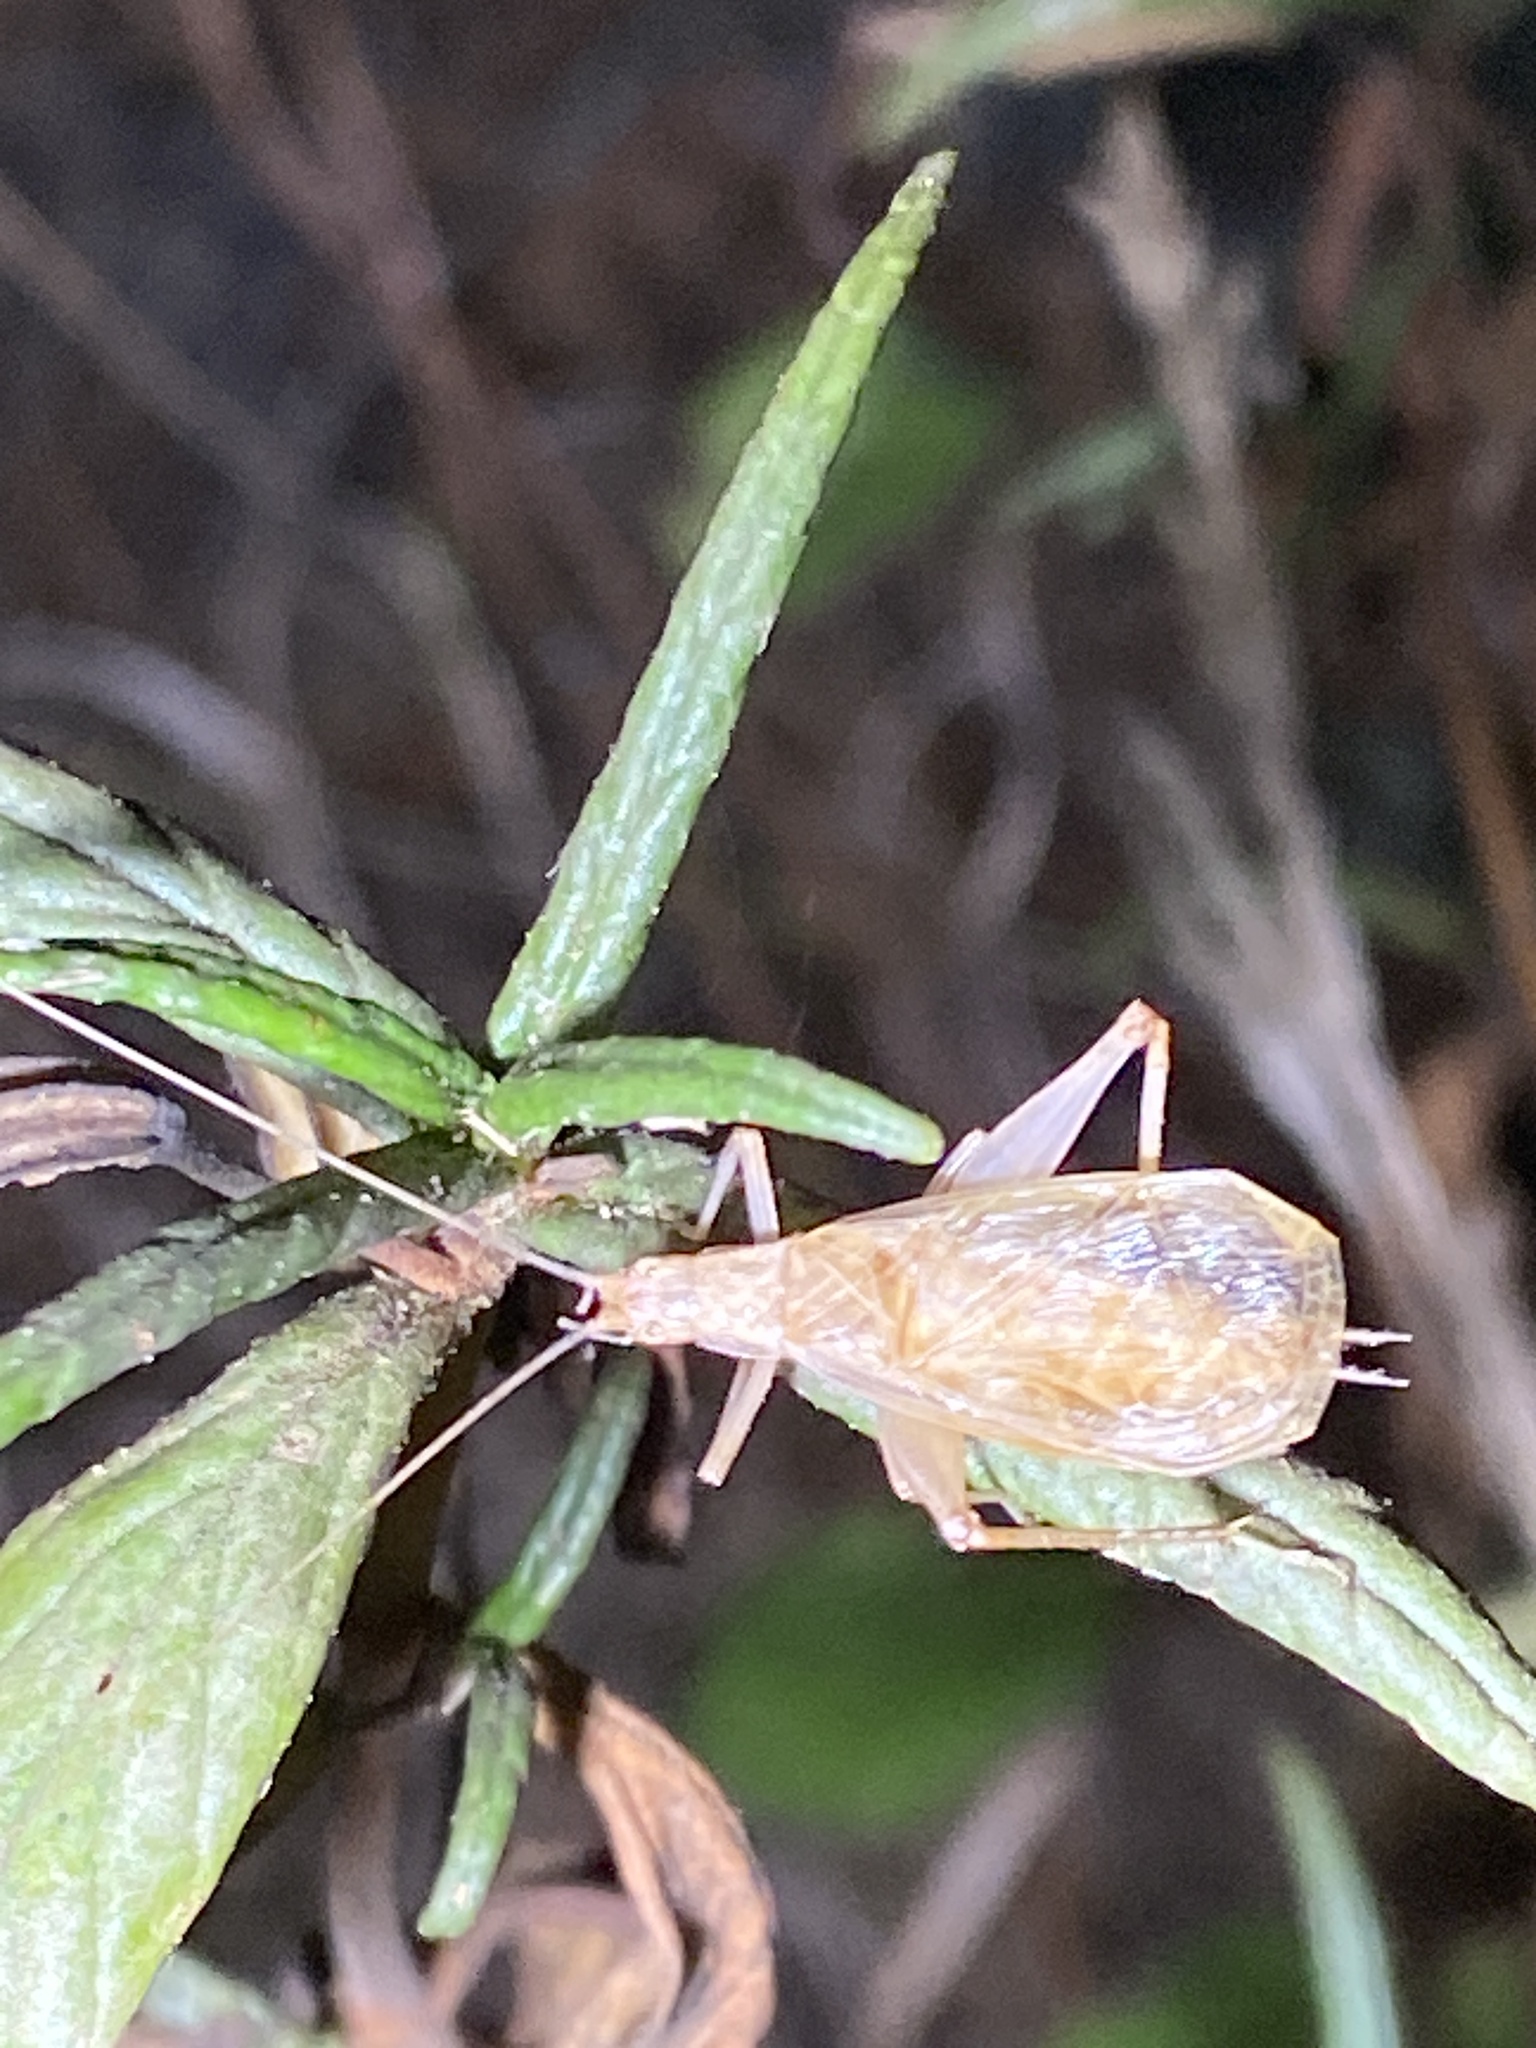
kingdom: Animalia
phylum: Arthropoda
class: Insecta
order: Orthoptera
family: Gryllidae
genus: Oecanthus
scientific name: Oecanthus californicus
